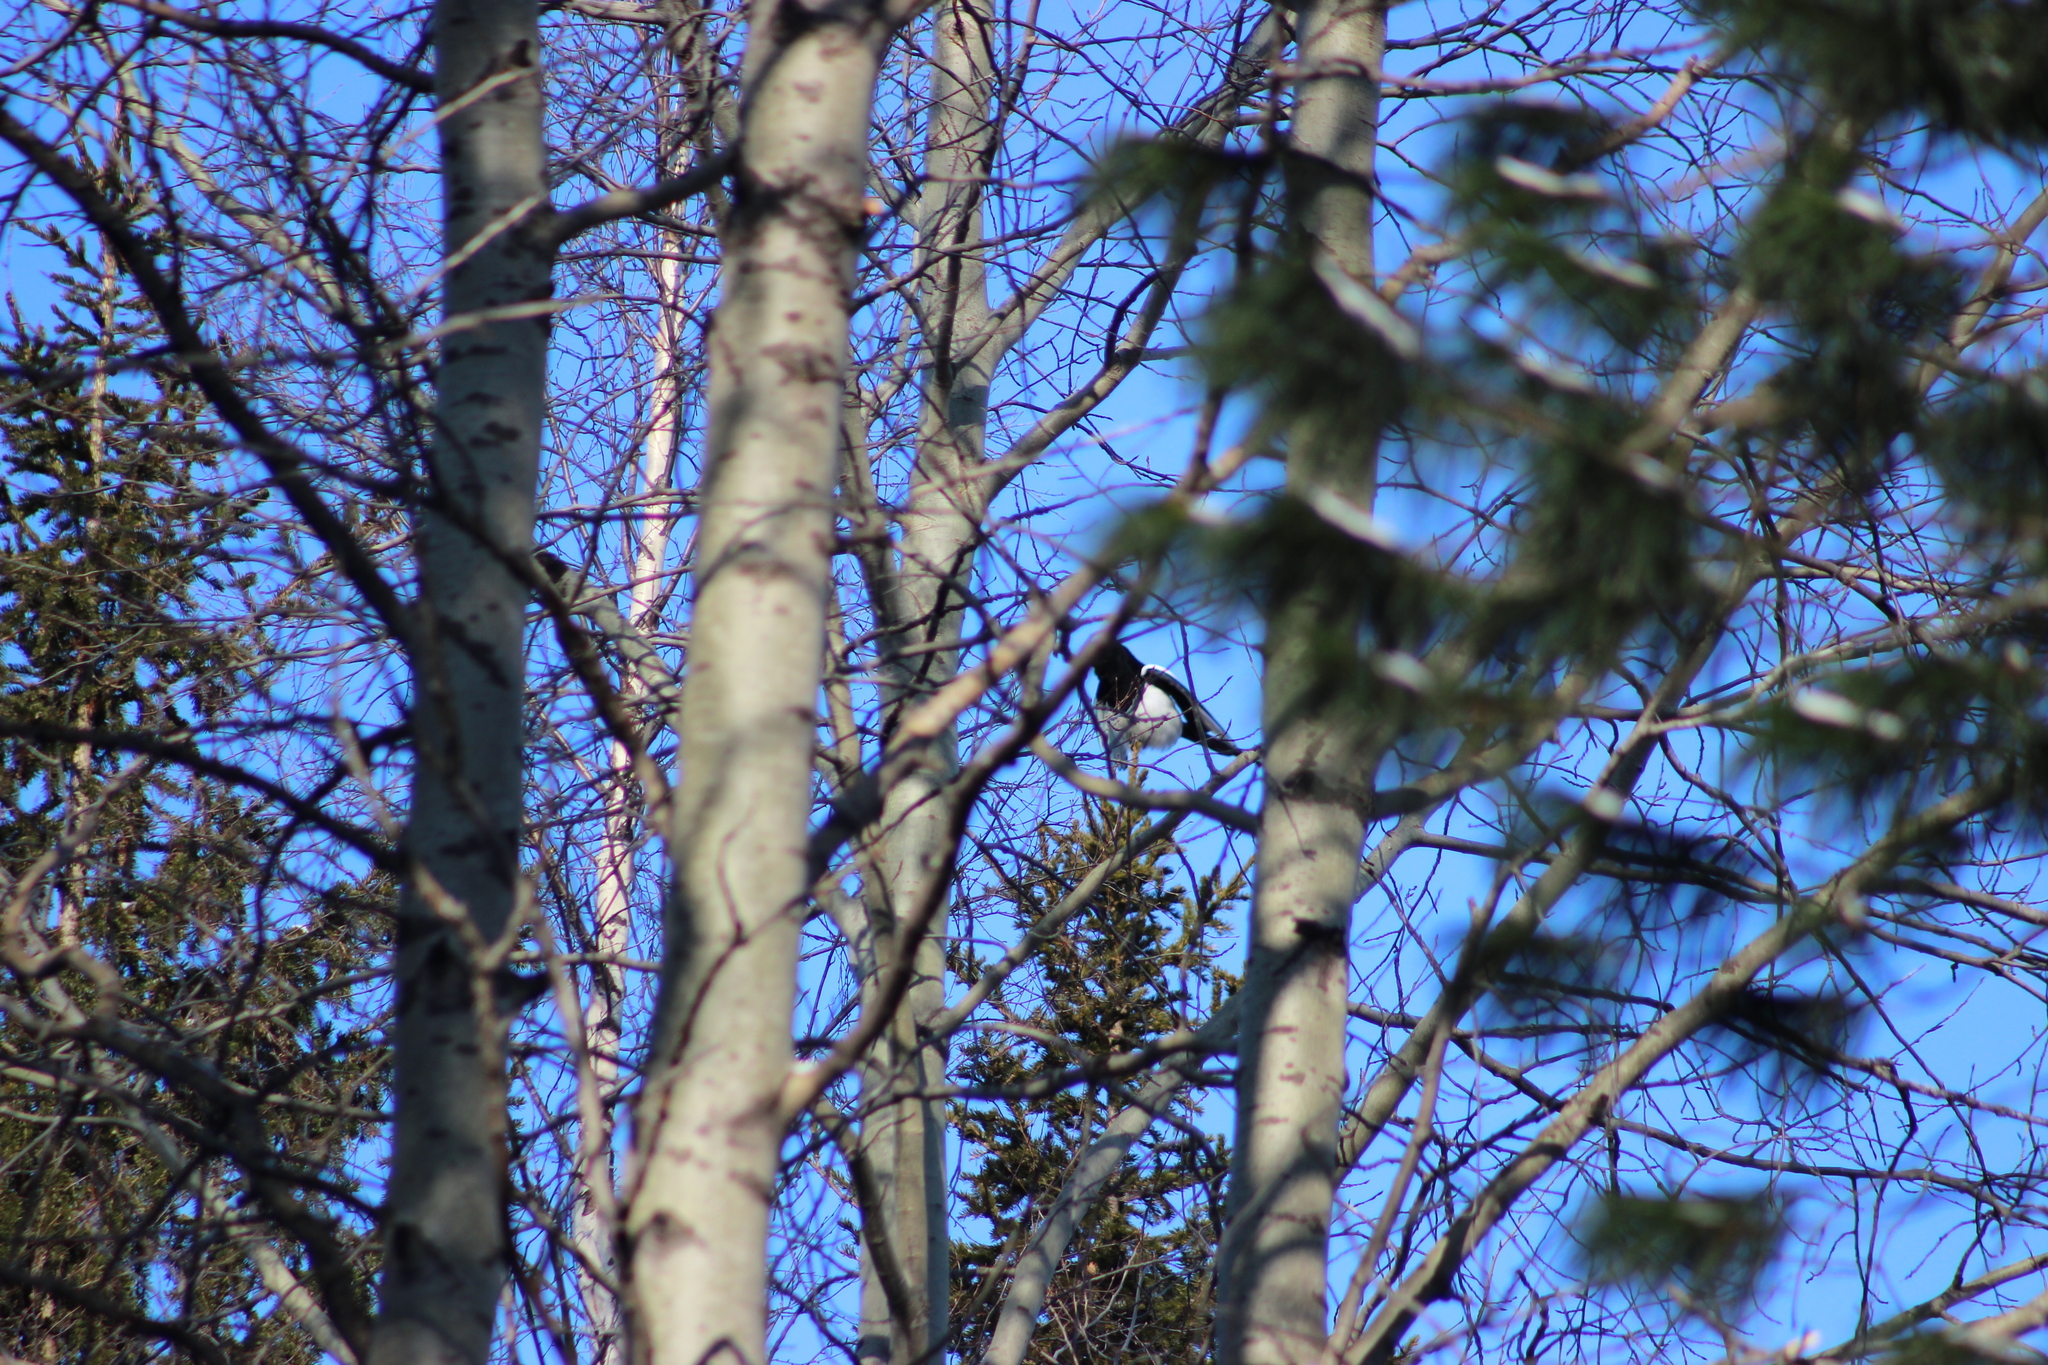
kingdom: Animalia
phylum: Chordata
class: Aves
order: Passeriformes
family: Corvidae
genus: Pica
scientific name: Pica pica
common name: Eurasian magpie
